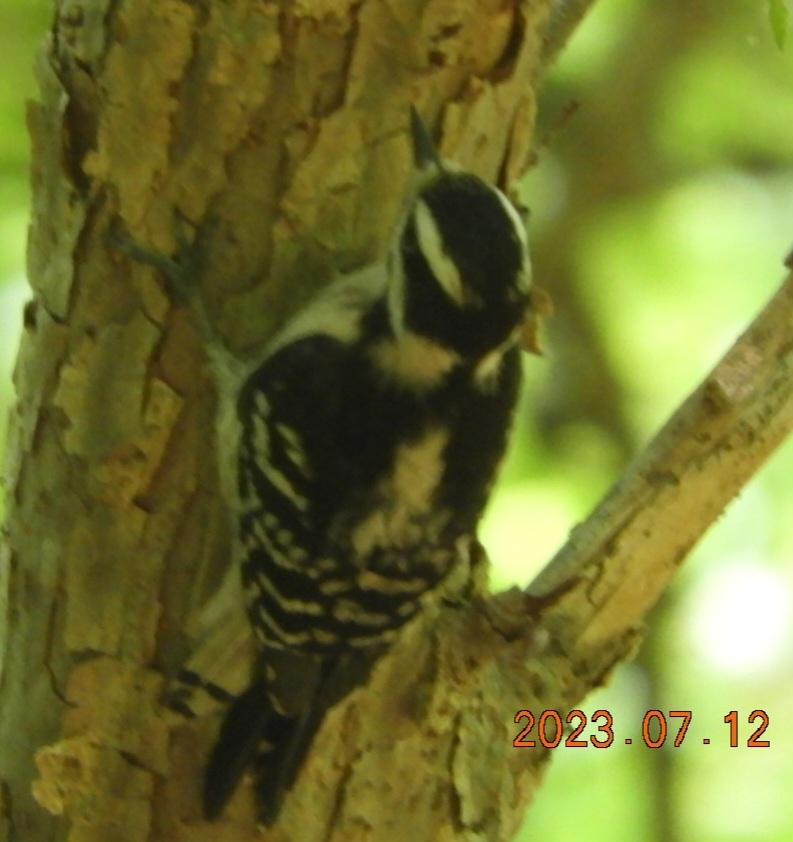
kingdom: Animalia
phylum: Chordata
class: Aves
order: Piciformes
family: Picidae
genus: Dryobates
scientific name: Dryobates pubescens
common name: Downy woodpecker
